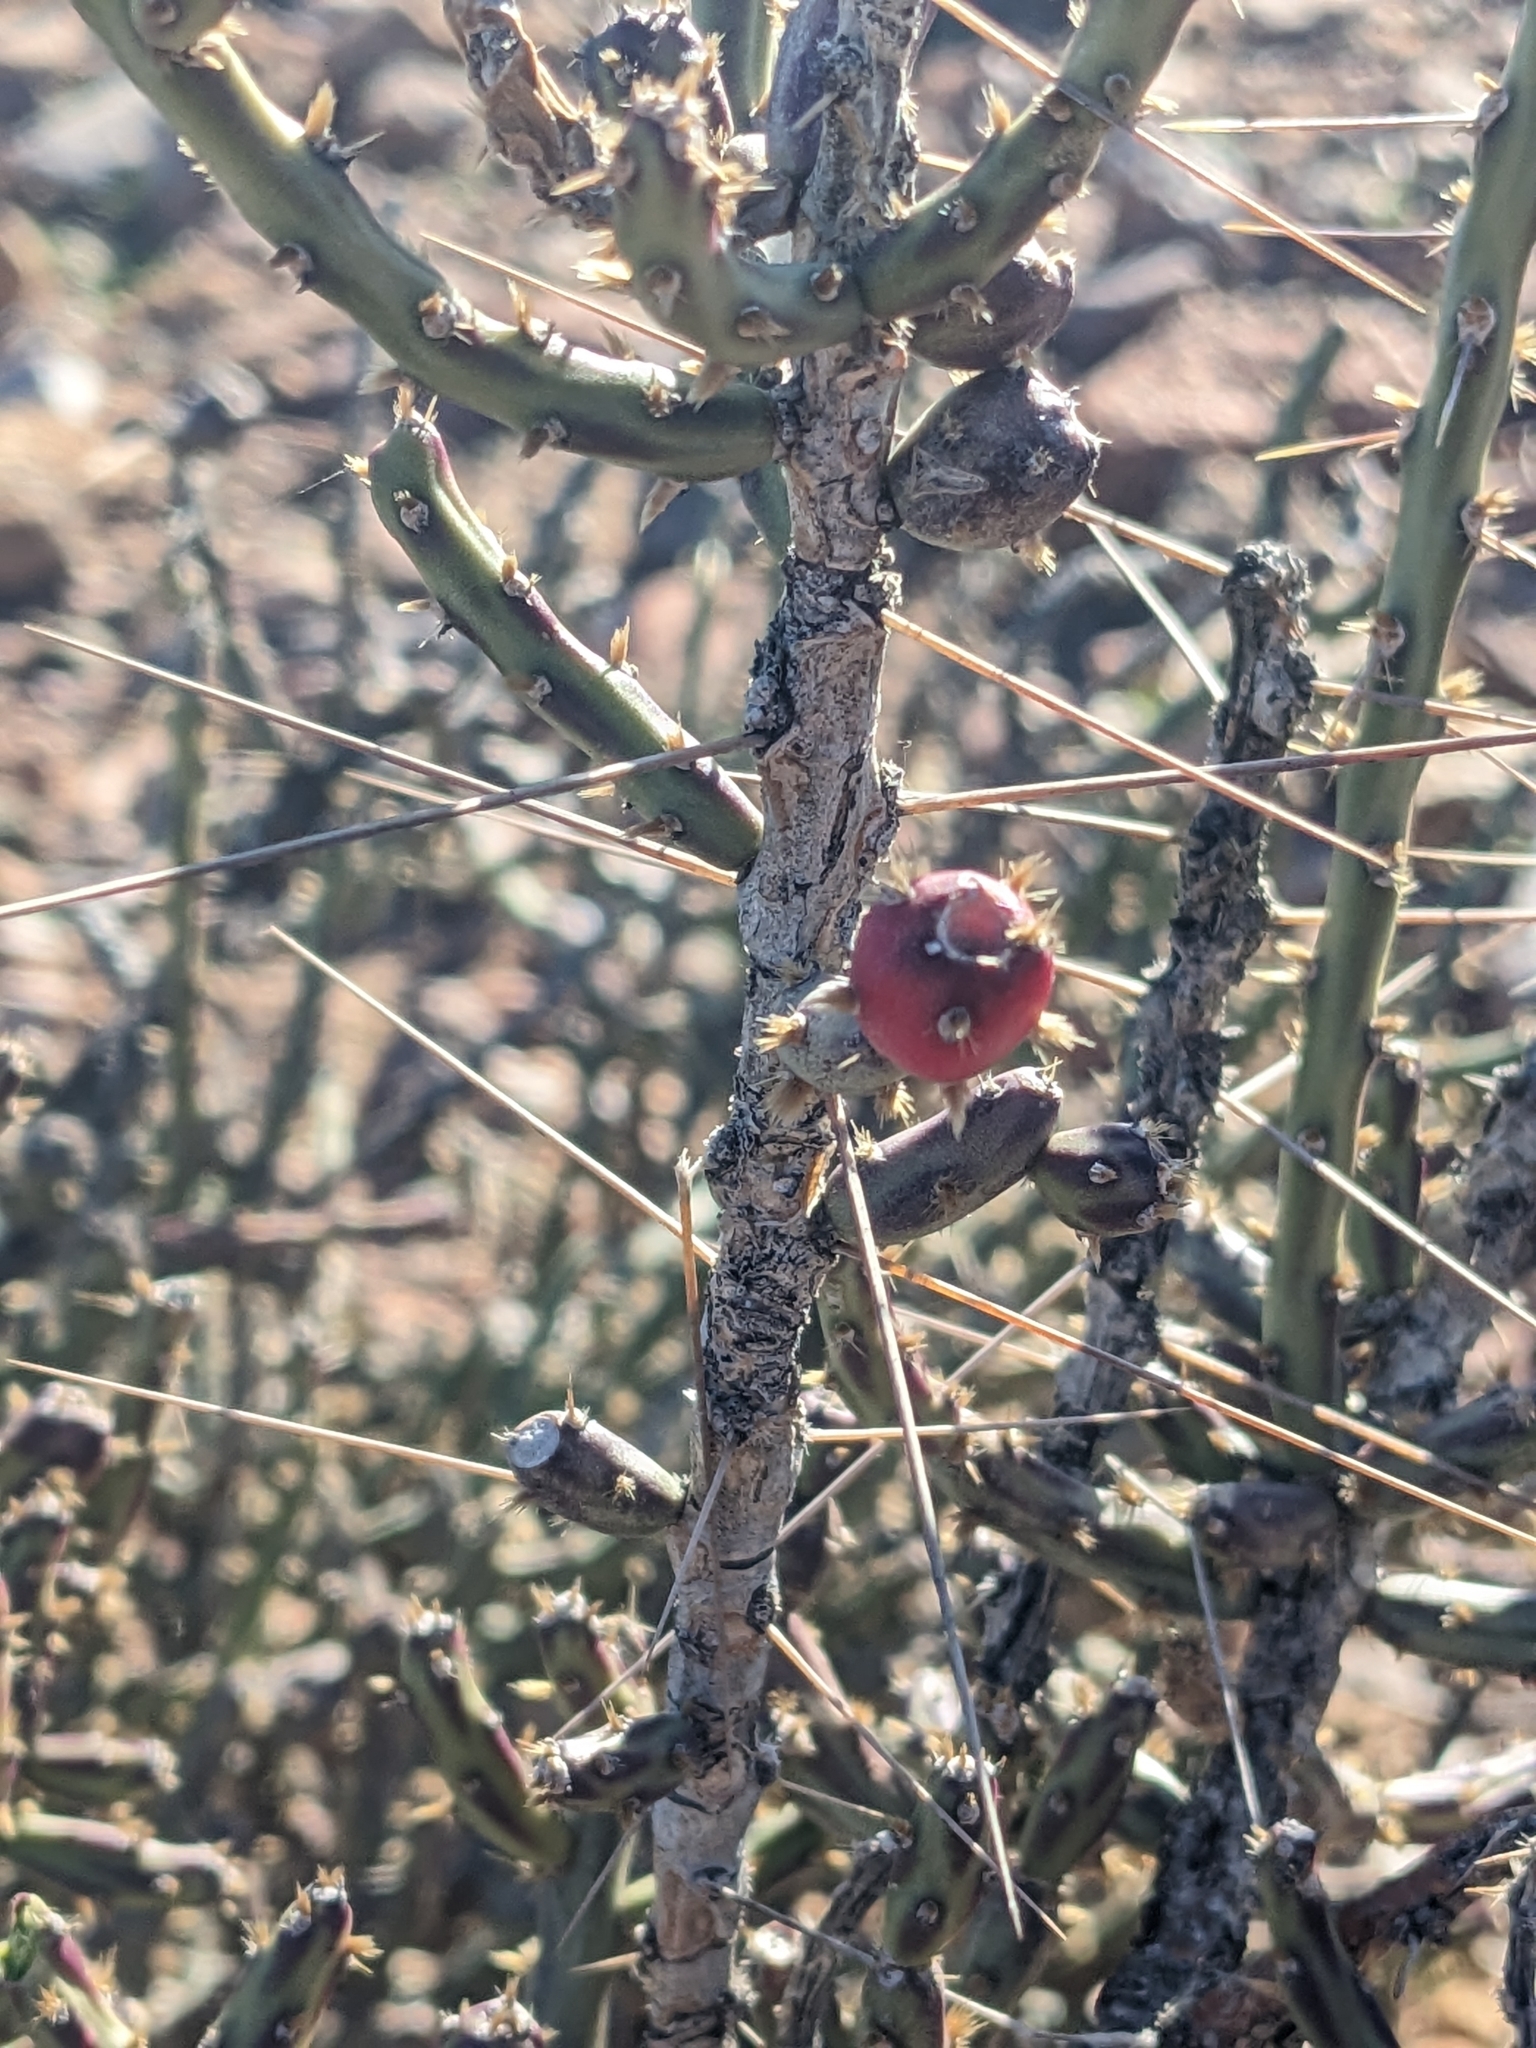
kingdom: Plantae
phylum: Tracheophyta
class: Magnoliopsida
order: Caryophyllales
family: Cactaceae
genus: Cylindropuntia
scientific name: Cylindropuntia leptocaulis
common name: Christmas cactus
